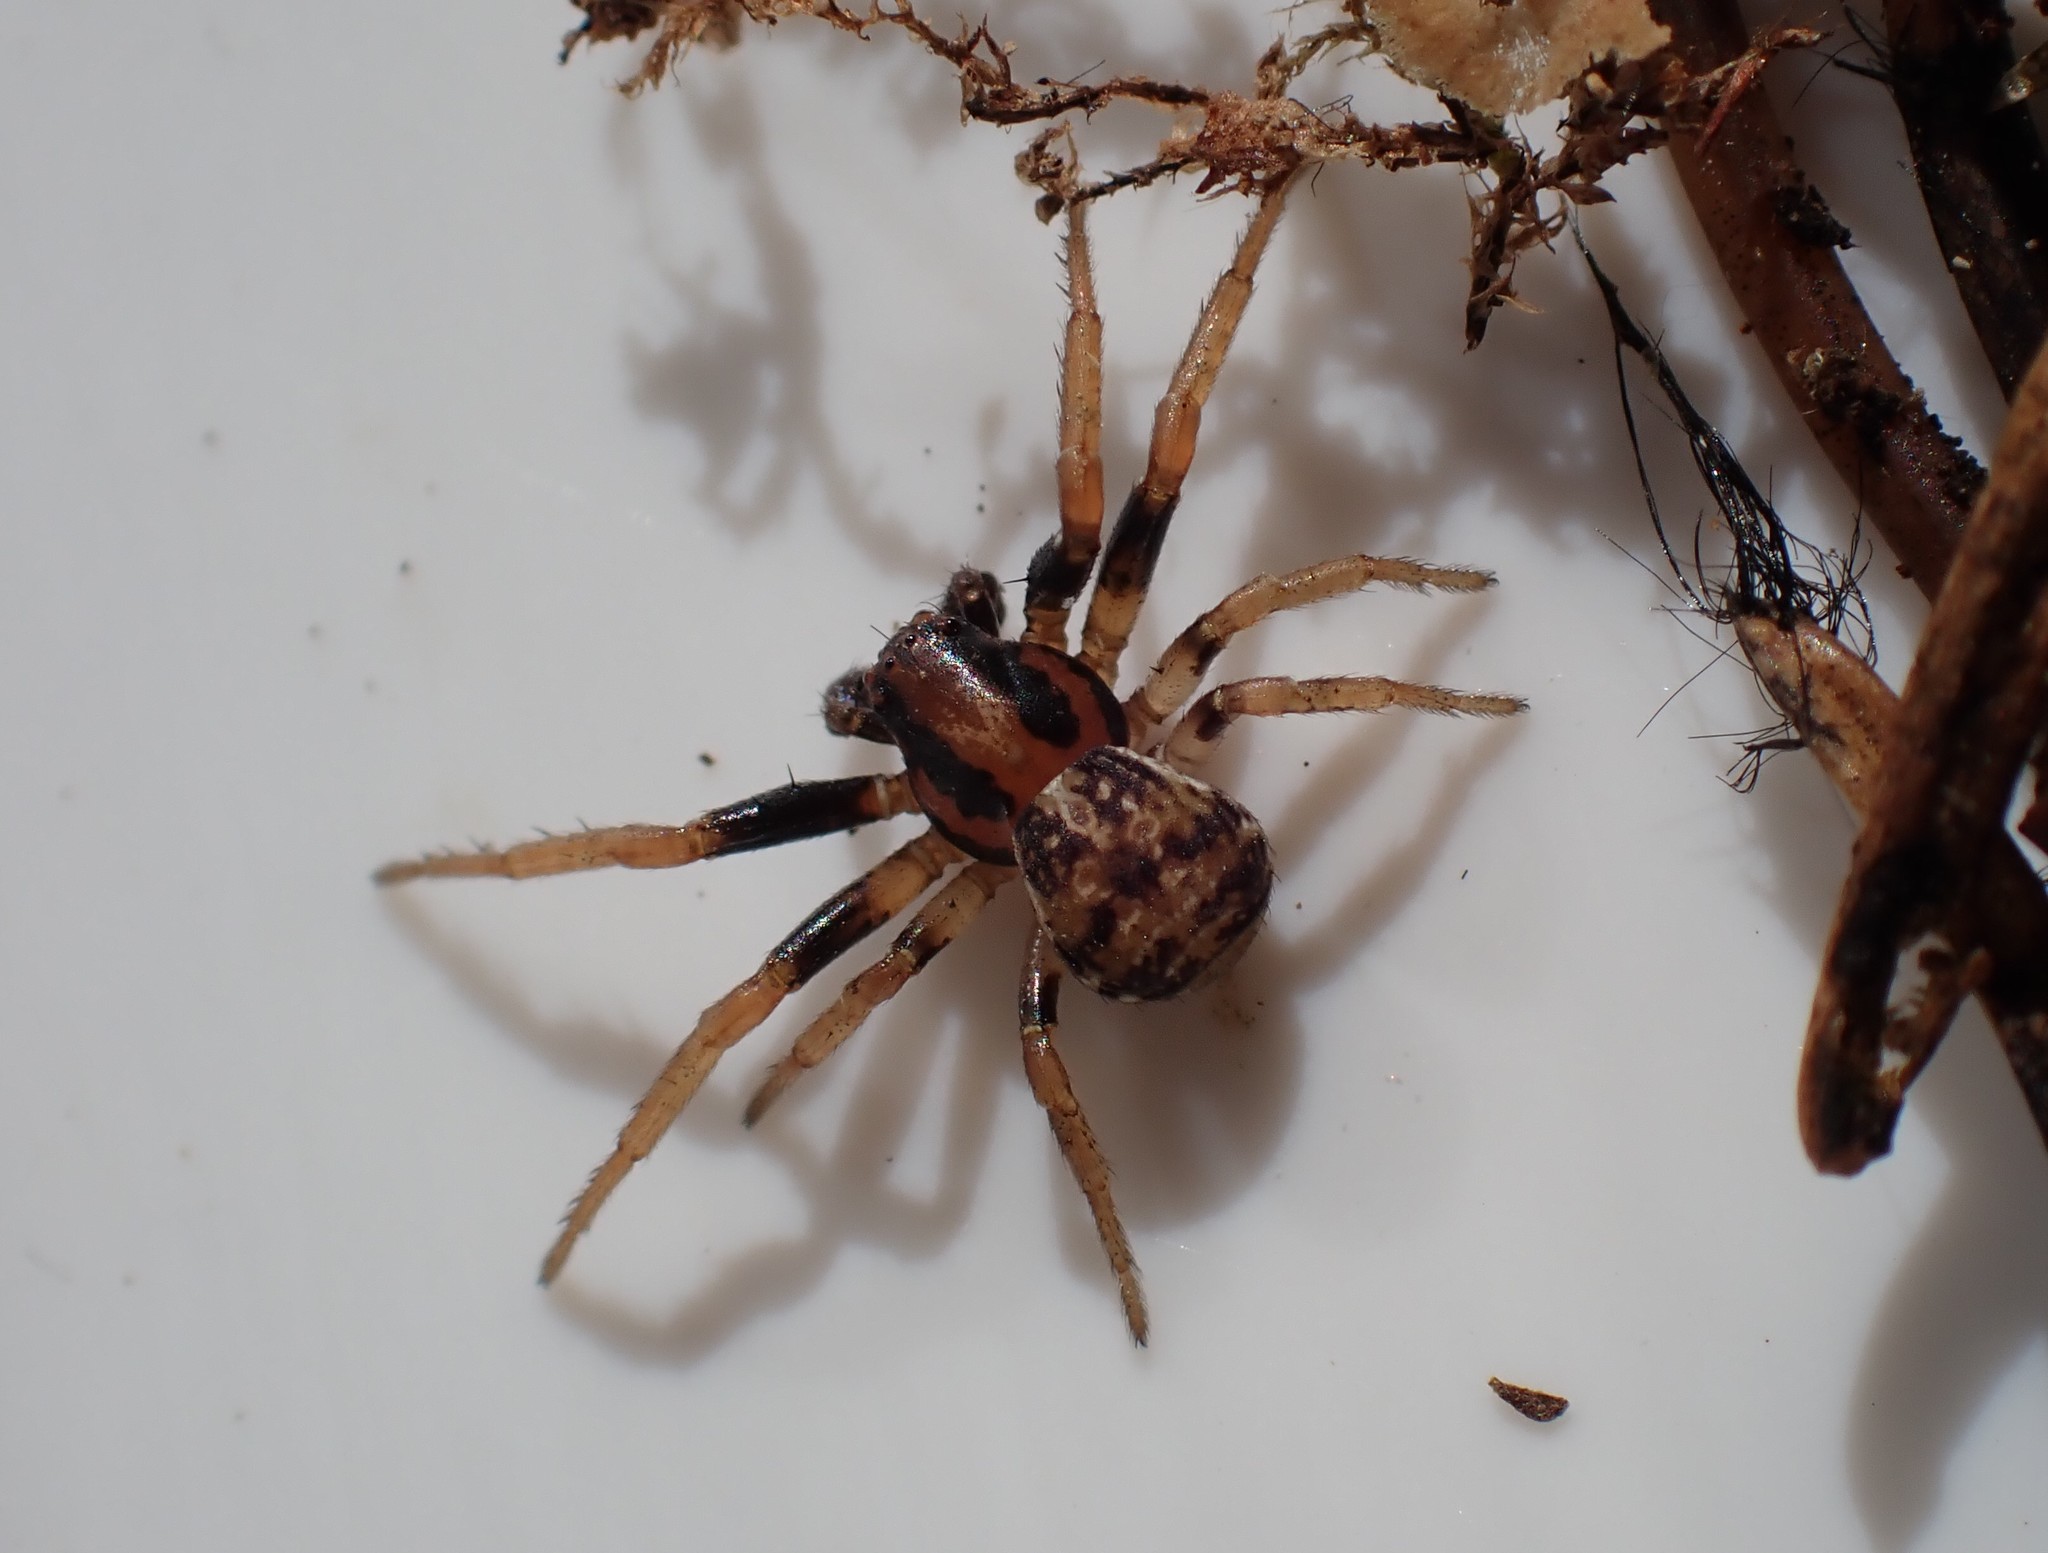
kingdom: Animalia
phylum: Arthropoda
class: Arachnida
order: Araneae
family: Thomisidae
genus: Ozyptila
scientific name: Ozyptila trux
